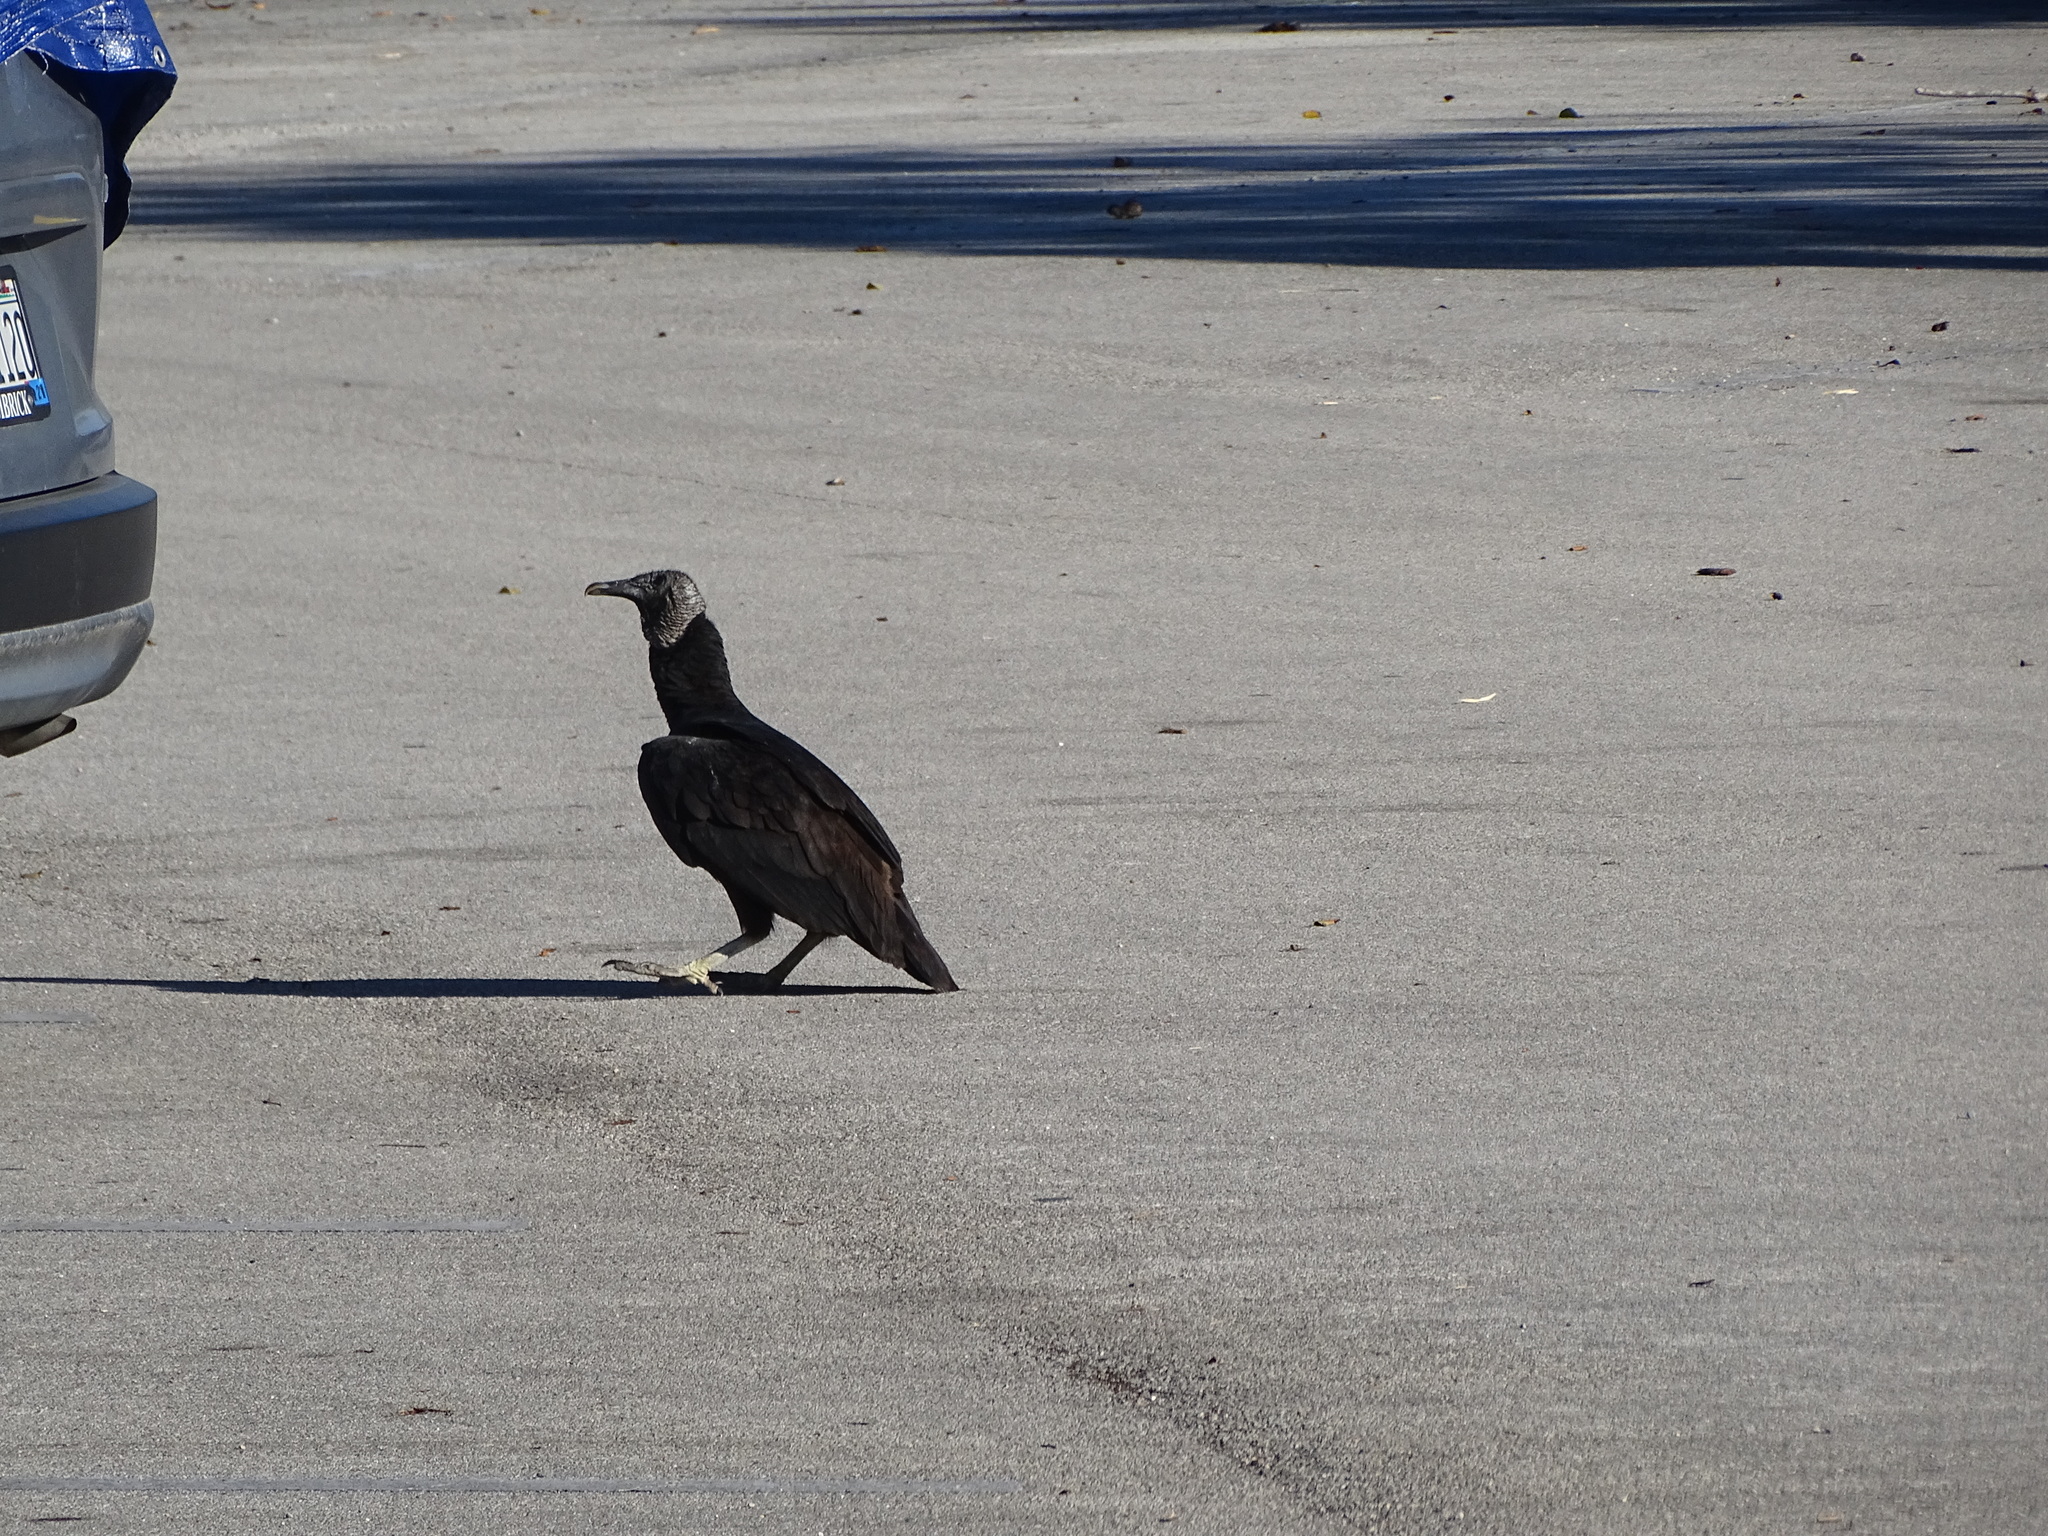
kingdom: Animalia
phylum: Chordata
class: Aves
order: Accipitriformes
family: Cathartidae
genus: Coragyps
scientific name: Coragyps atratus
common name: Black vulture
